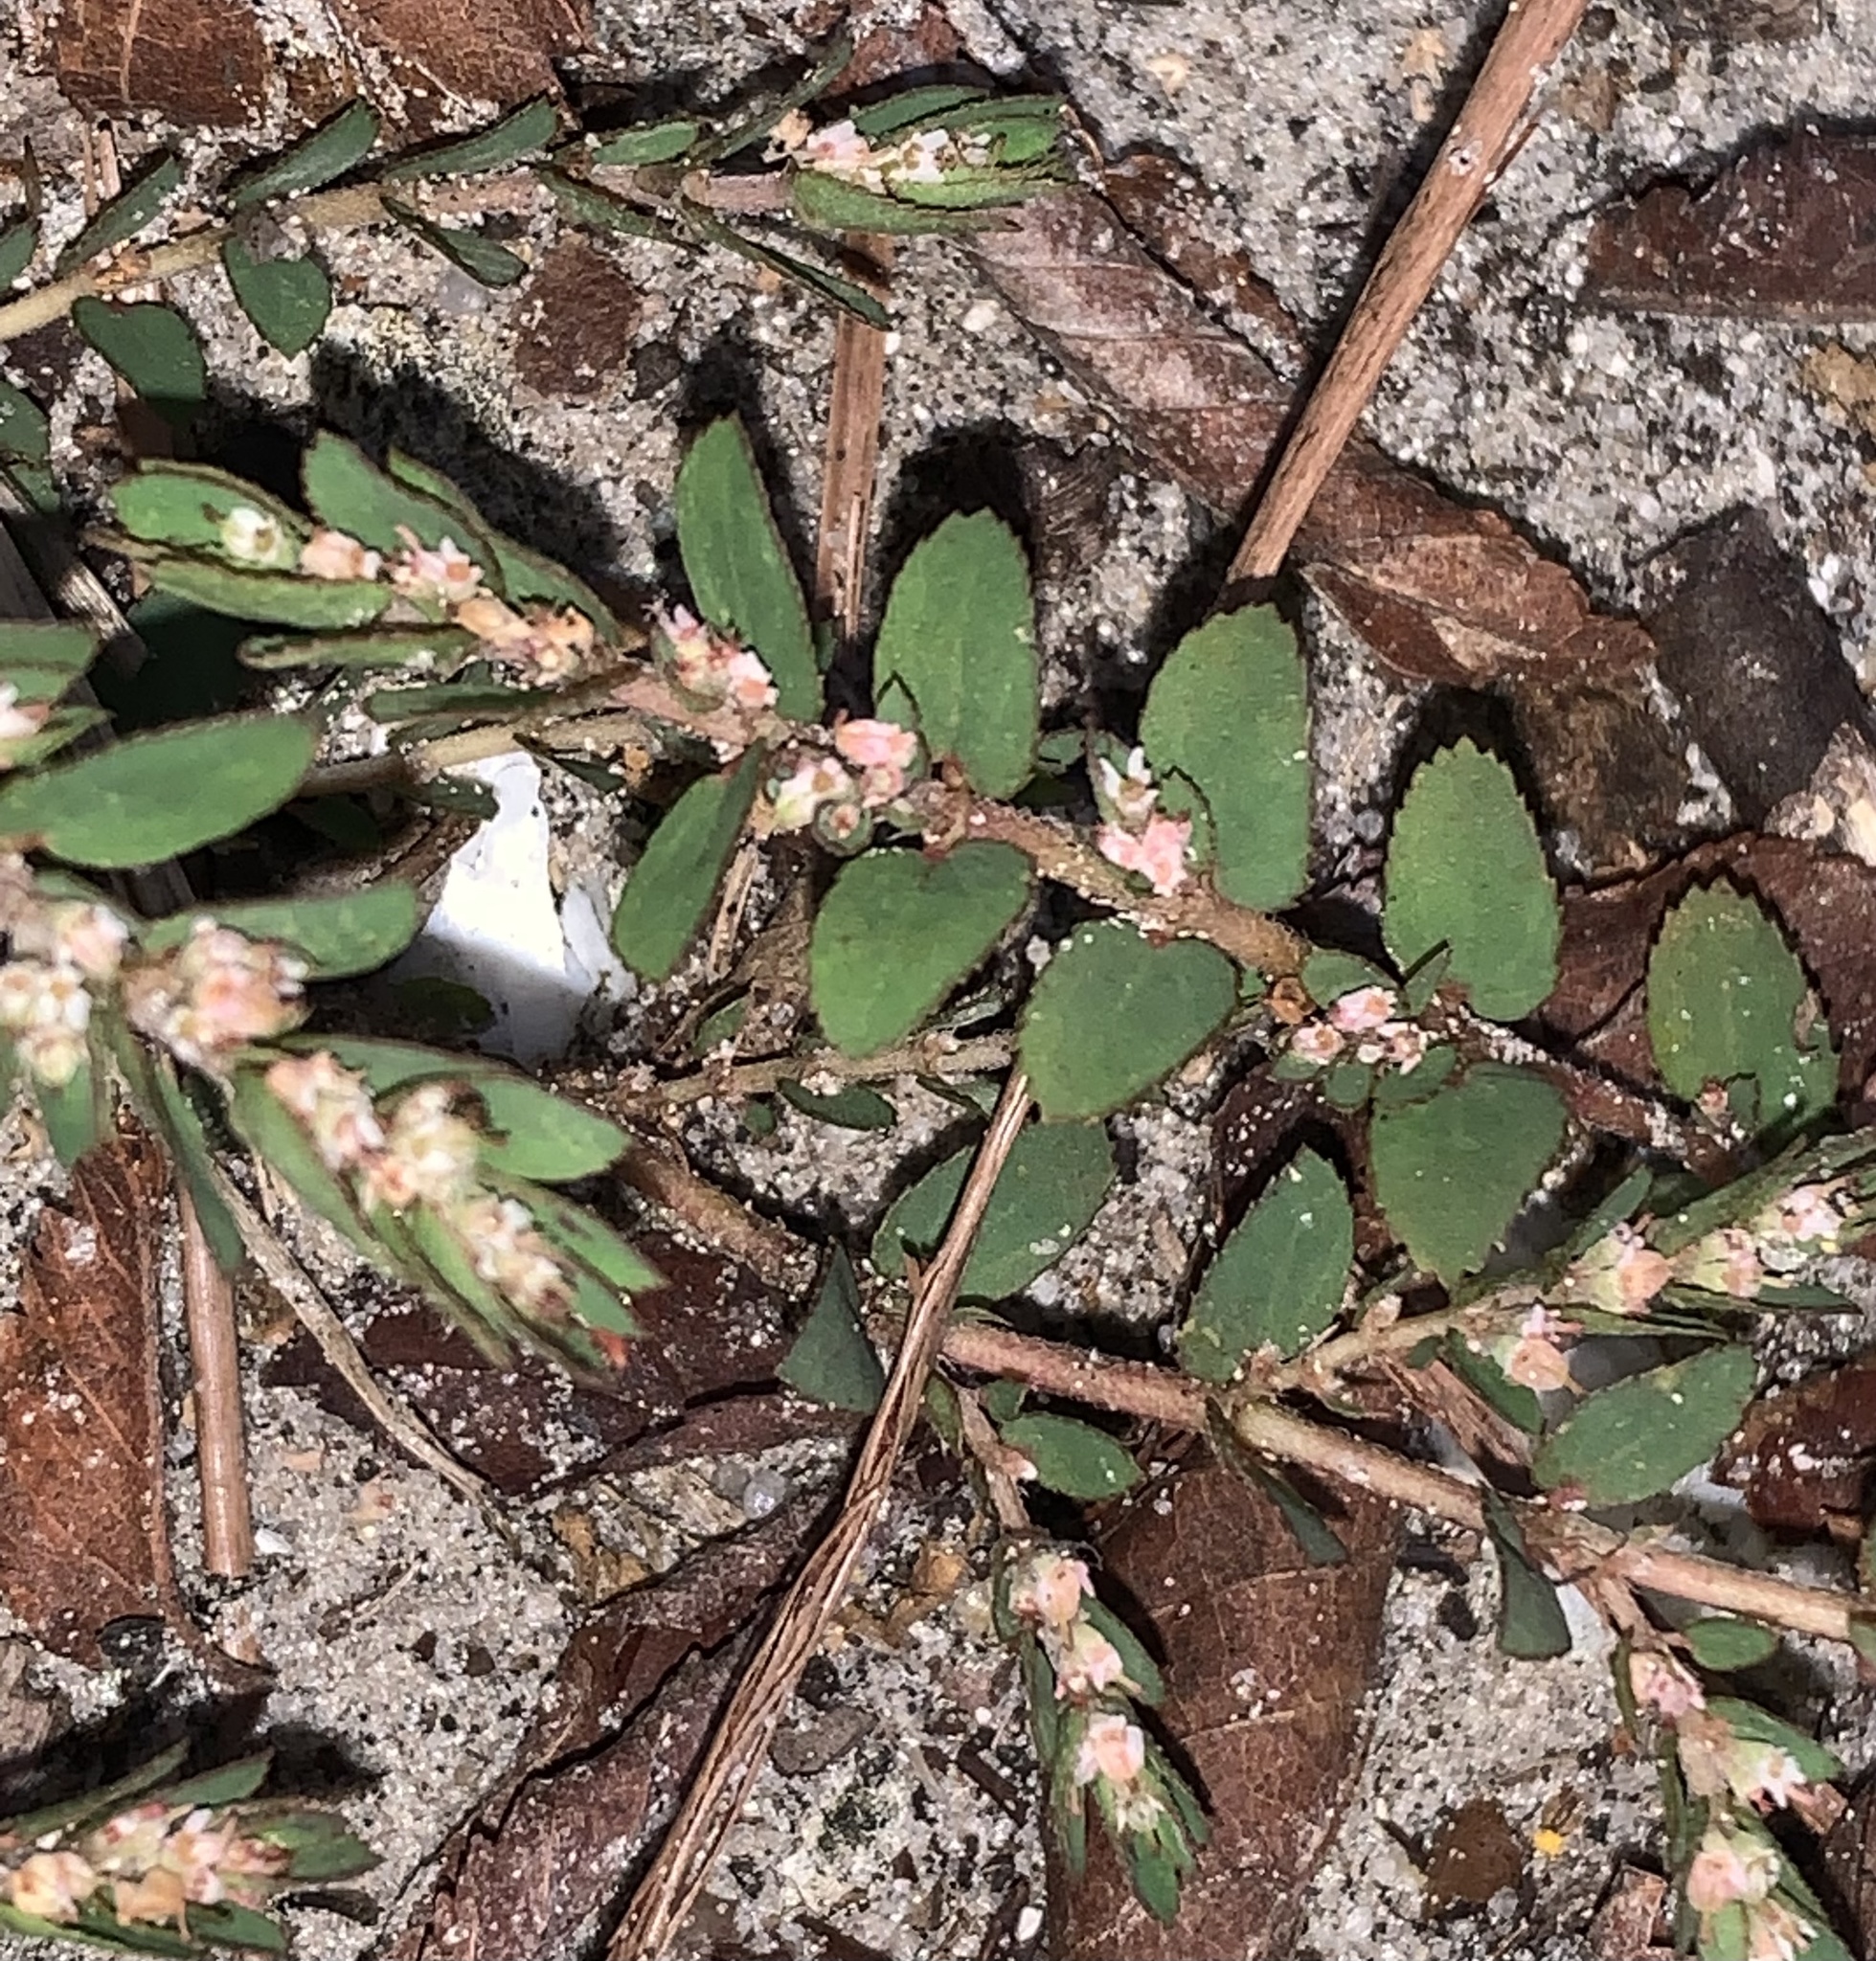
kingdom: Plantae
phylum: Tracheophyta
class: Magnoliopsida
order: Malpighiales
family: Euphorbiaceae
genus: Euphorbia
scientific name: Euphorbia thymifolia
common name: Gulf sandmat
